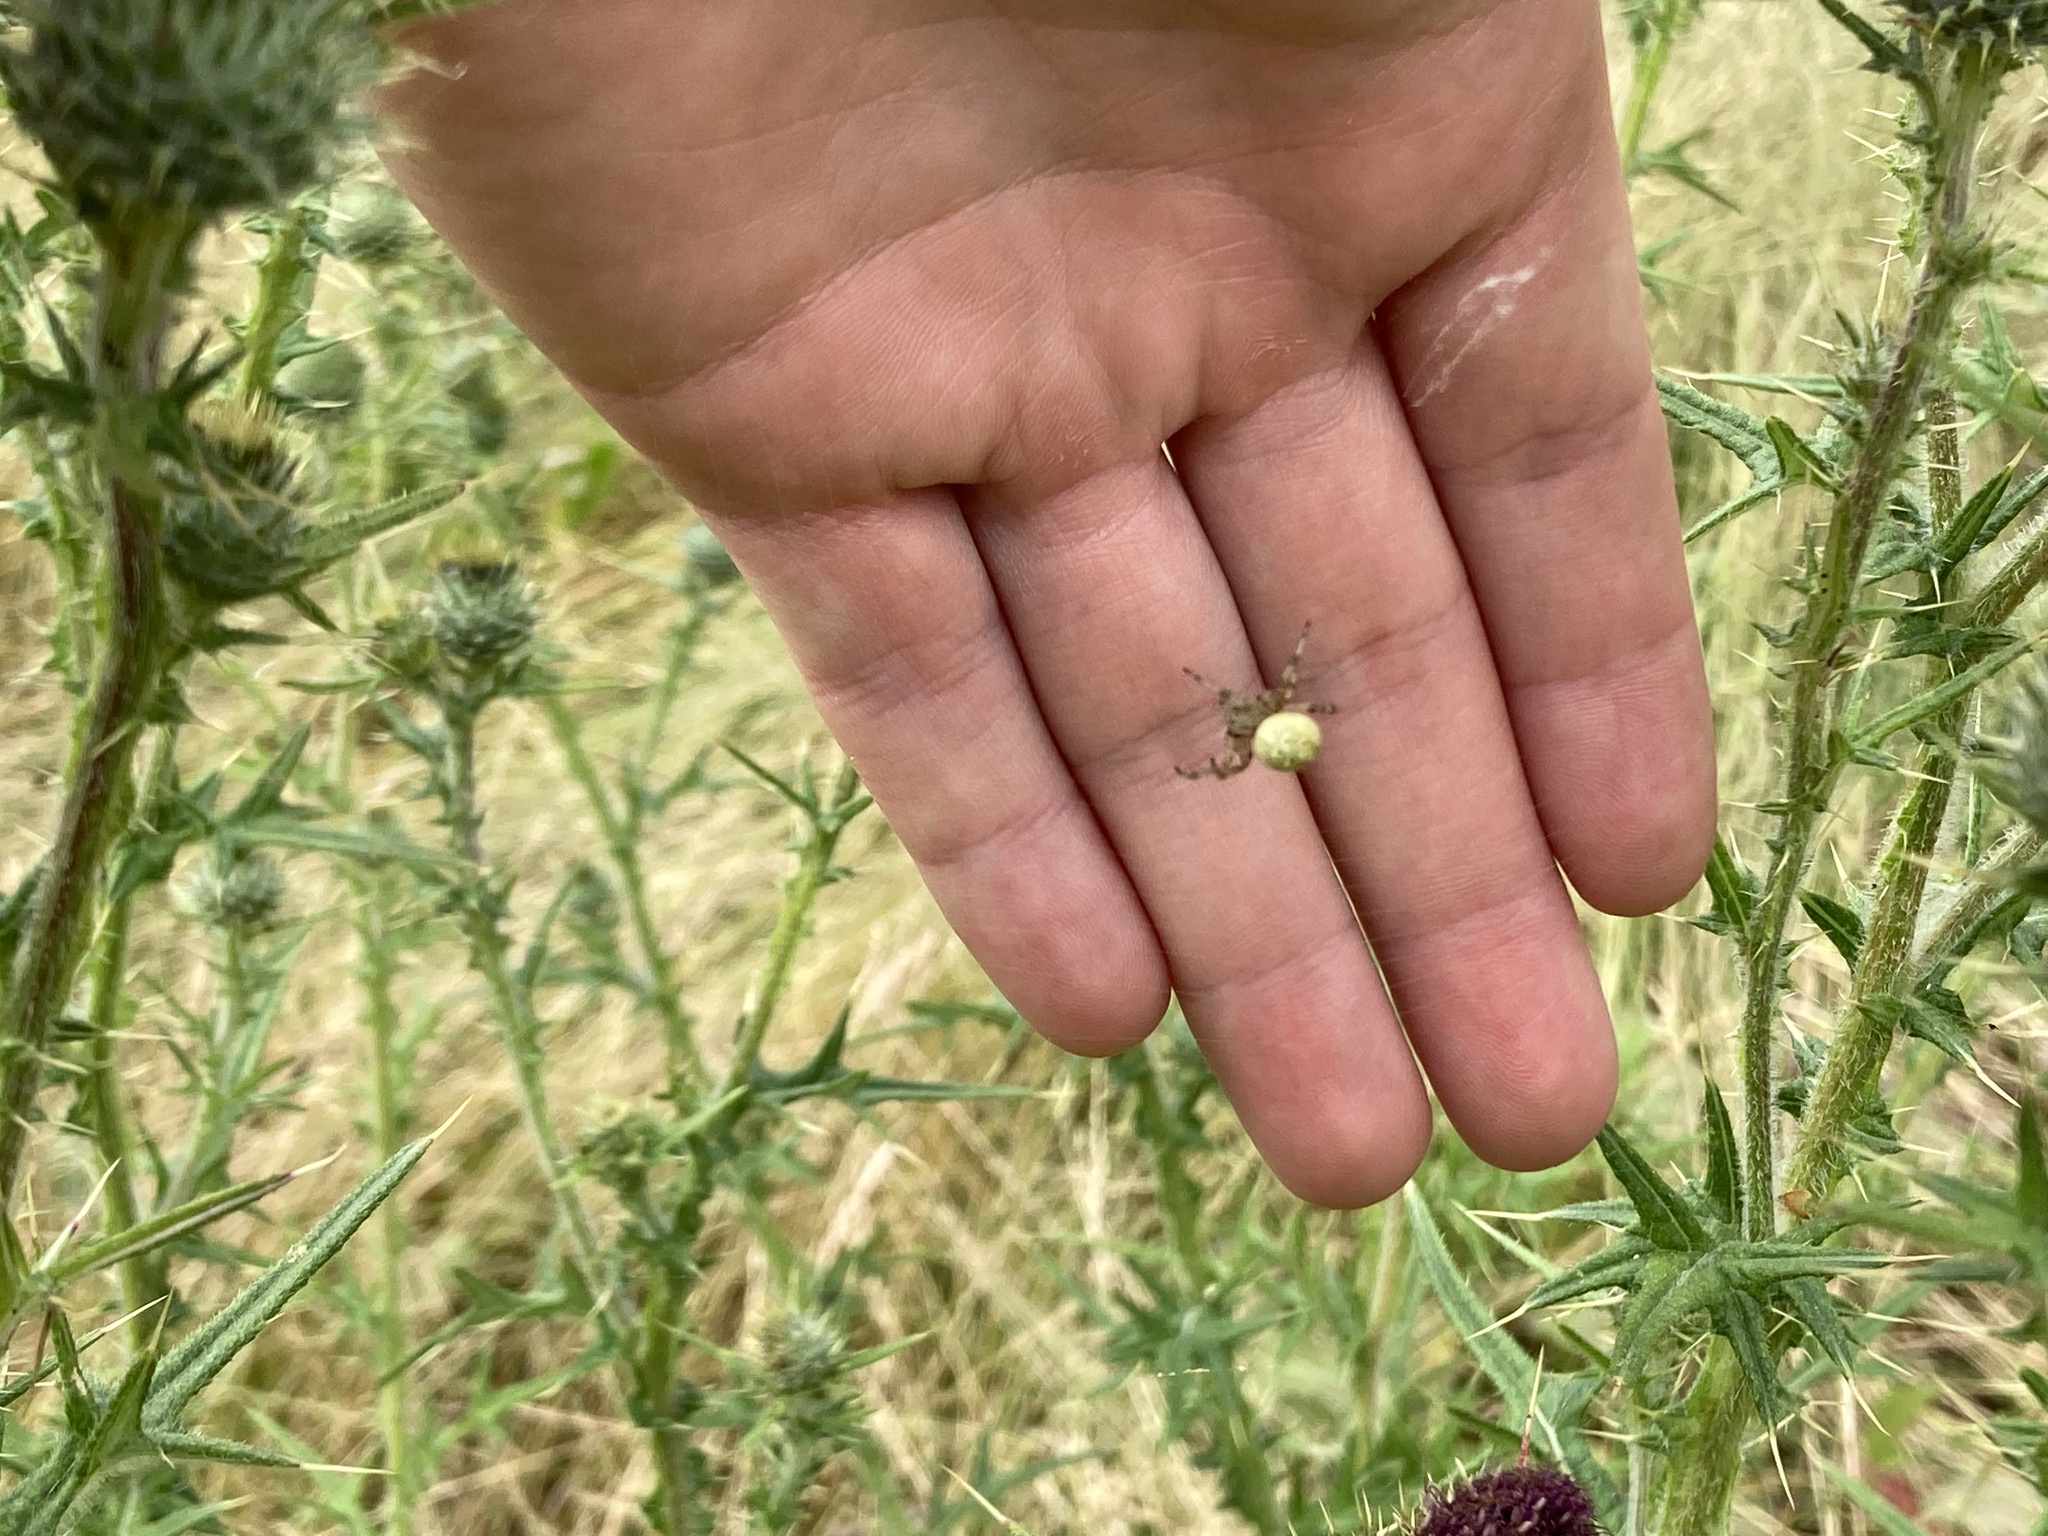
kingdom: Animalia
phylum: Arthropoda
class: Arachnida
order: Araneae
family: Araneidae
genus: Araneus
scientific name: Araneus quadratus
